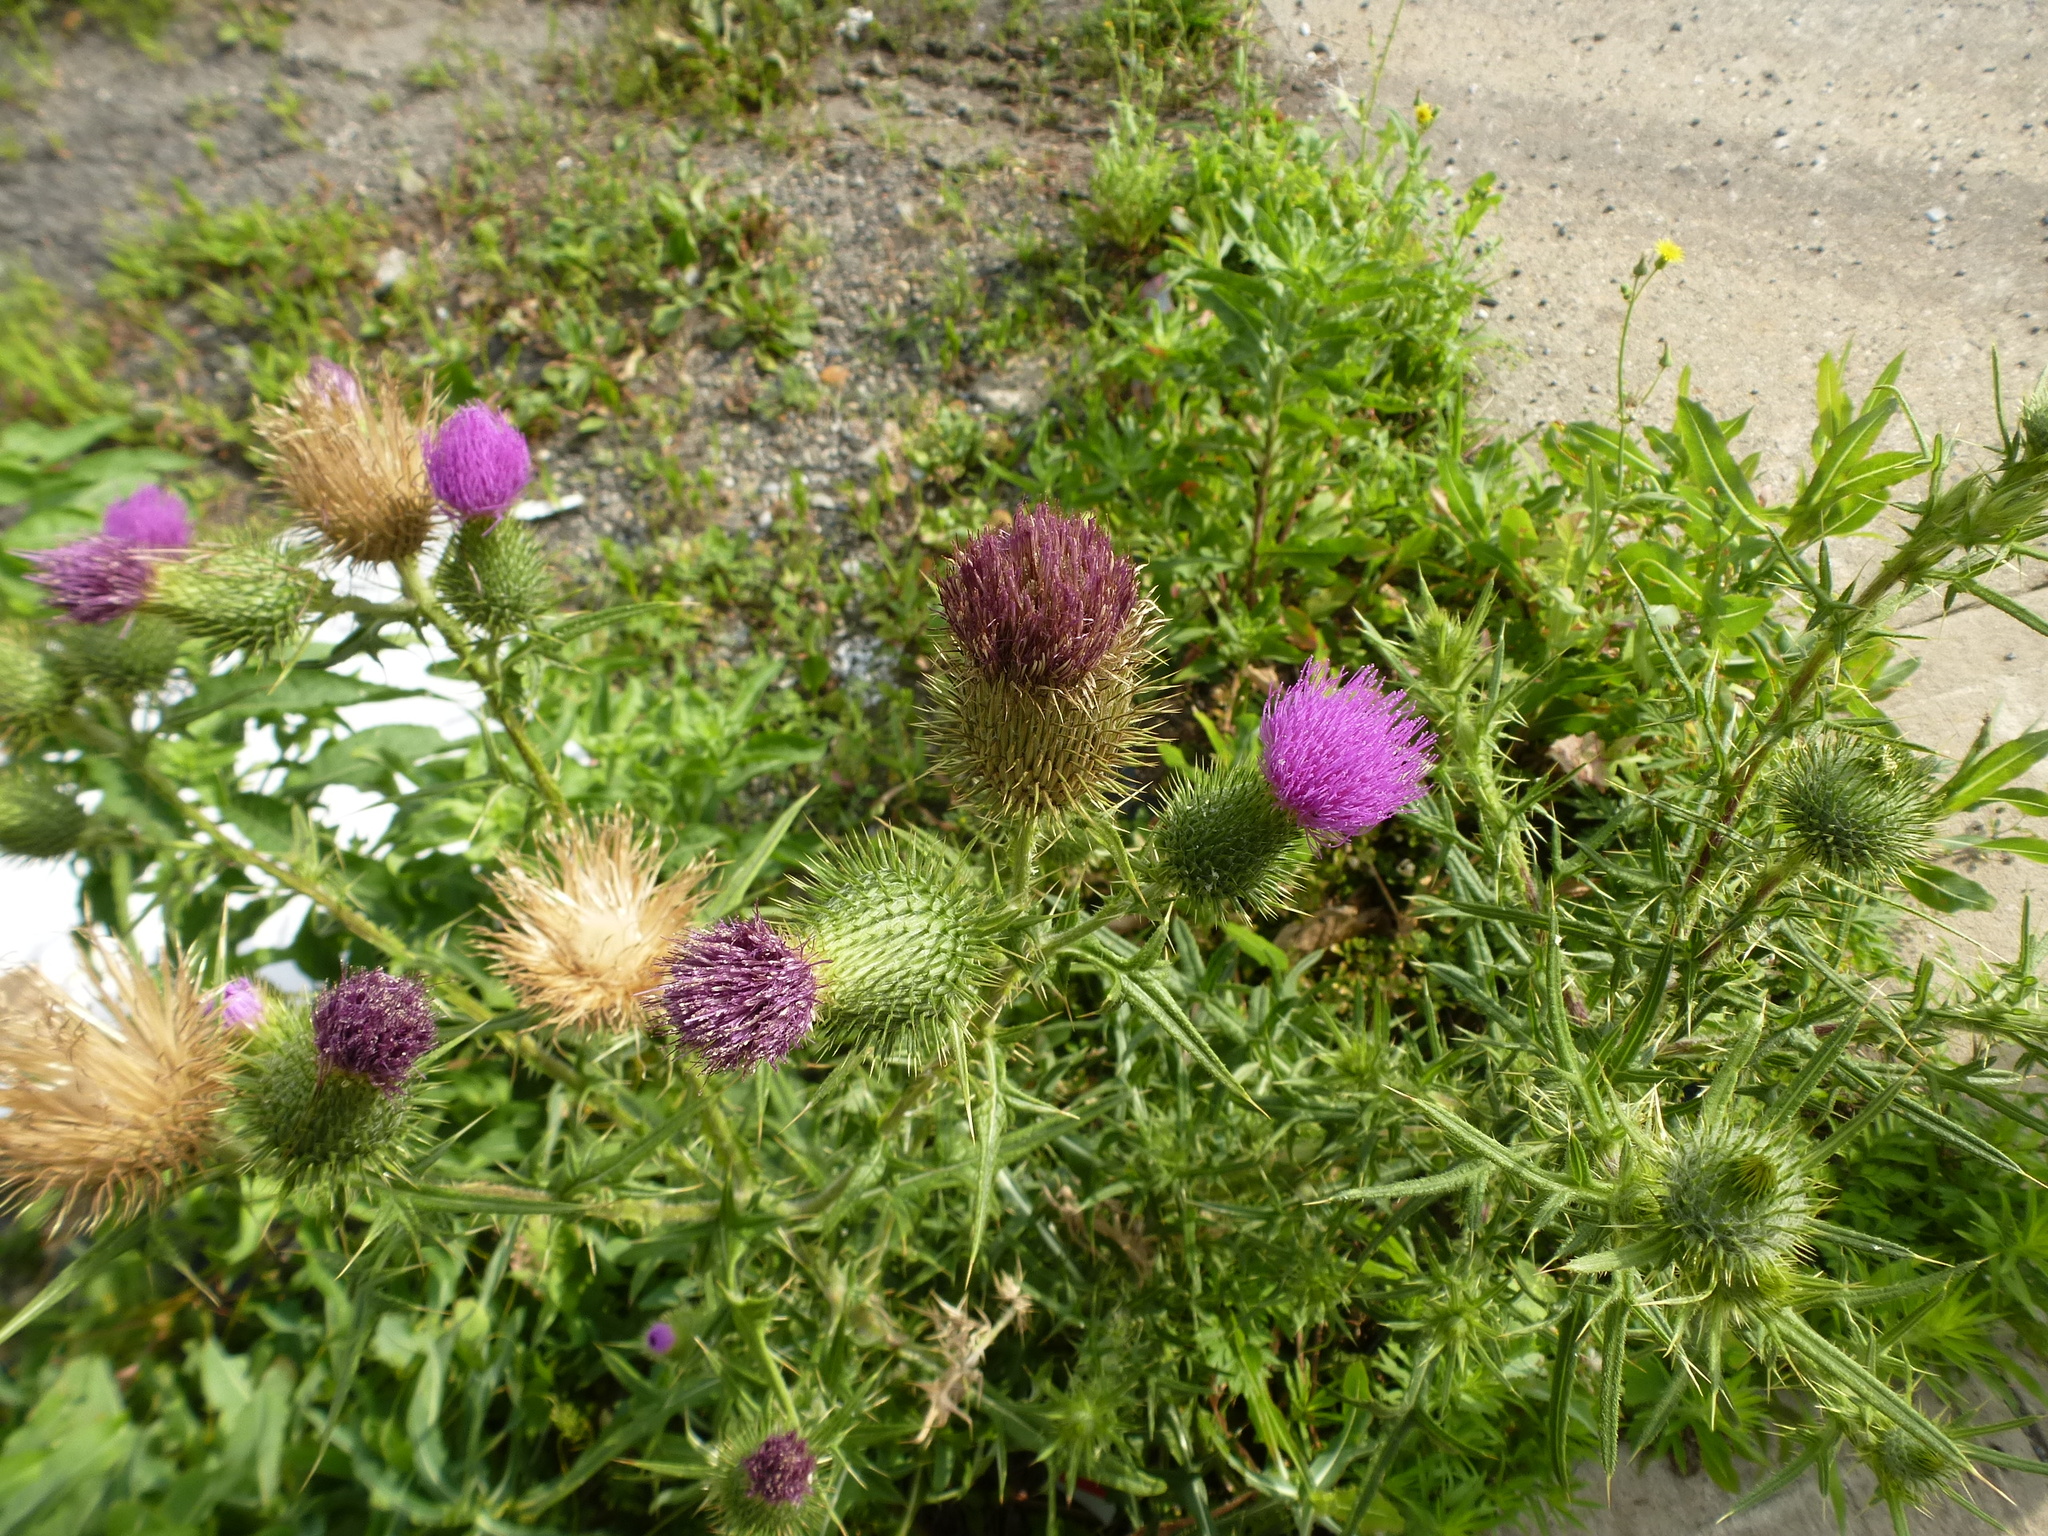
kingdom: Plantae
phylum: Tracheophyta
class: Magnoliopsida
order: Asterales
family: Asteraceae
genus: Cirsium
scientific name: Cirsium vulgare
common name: Bull thistle
